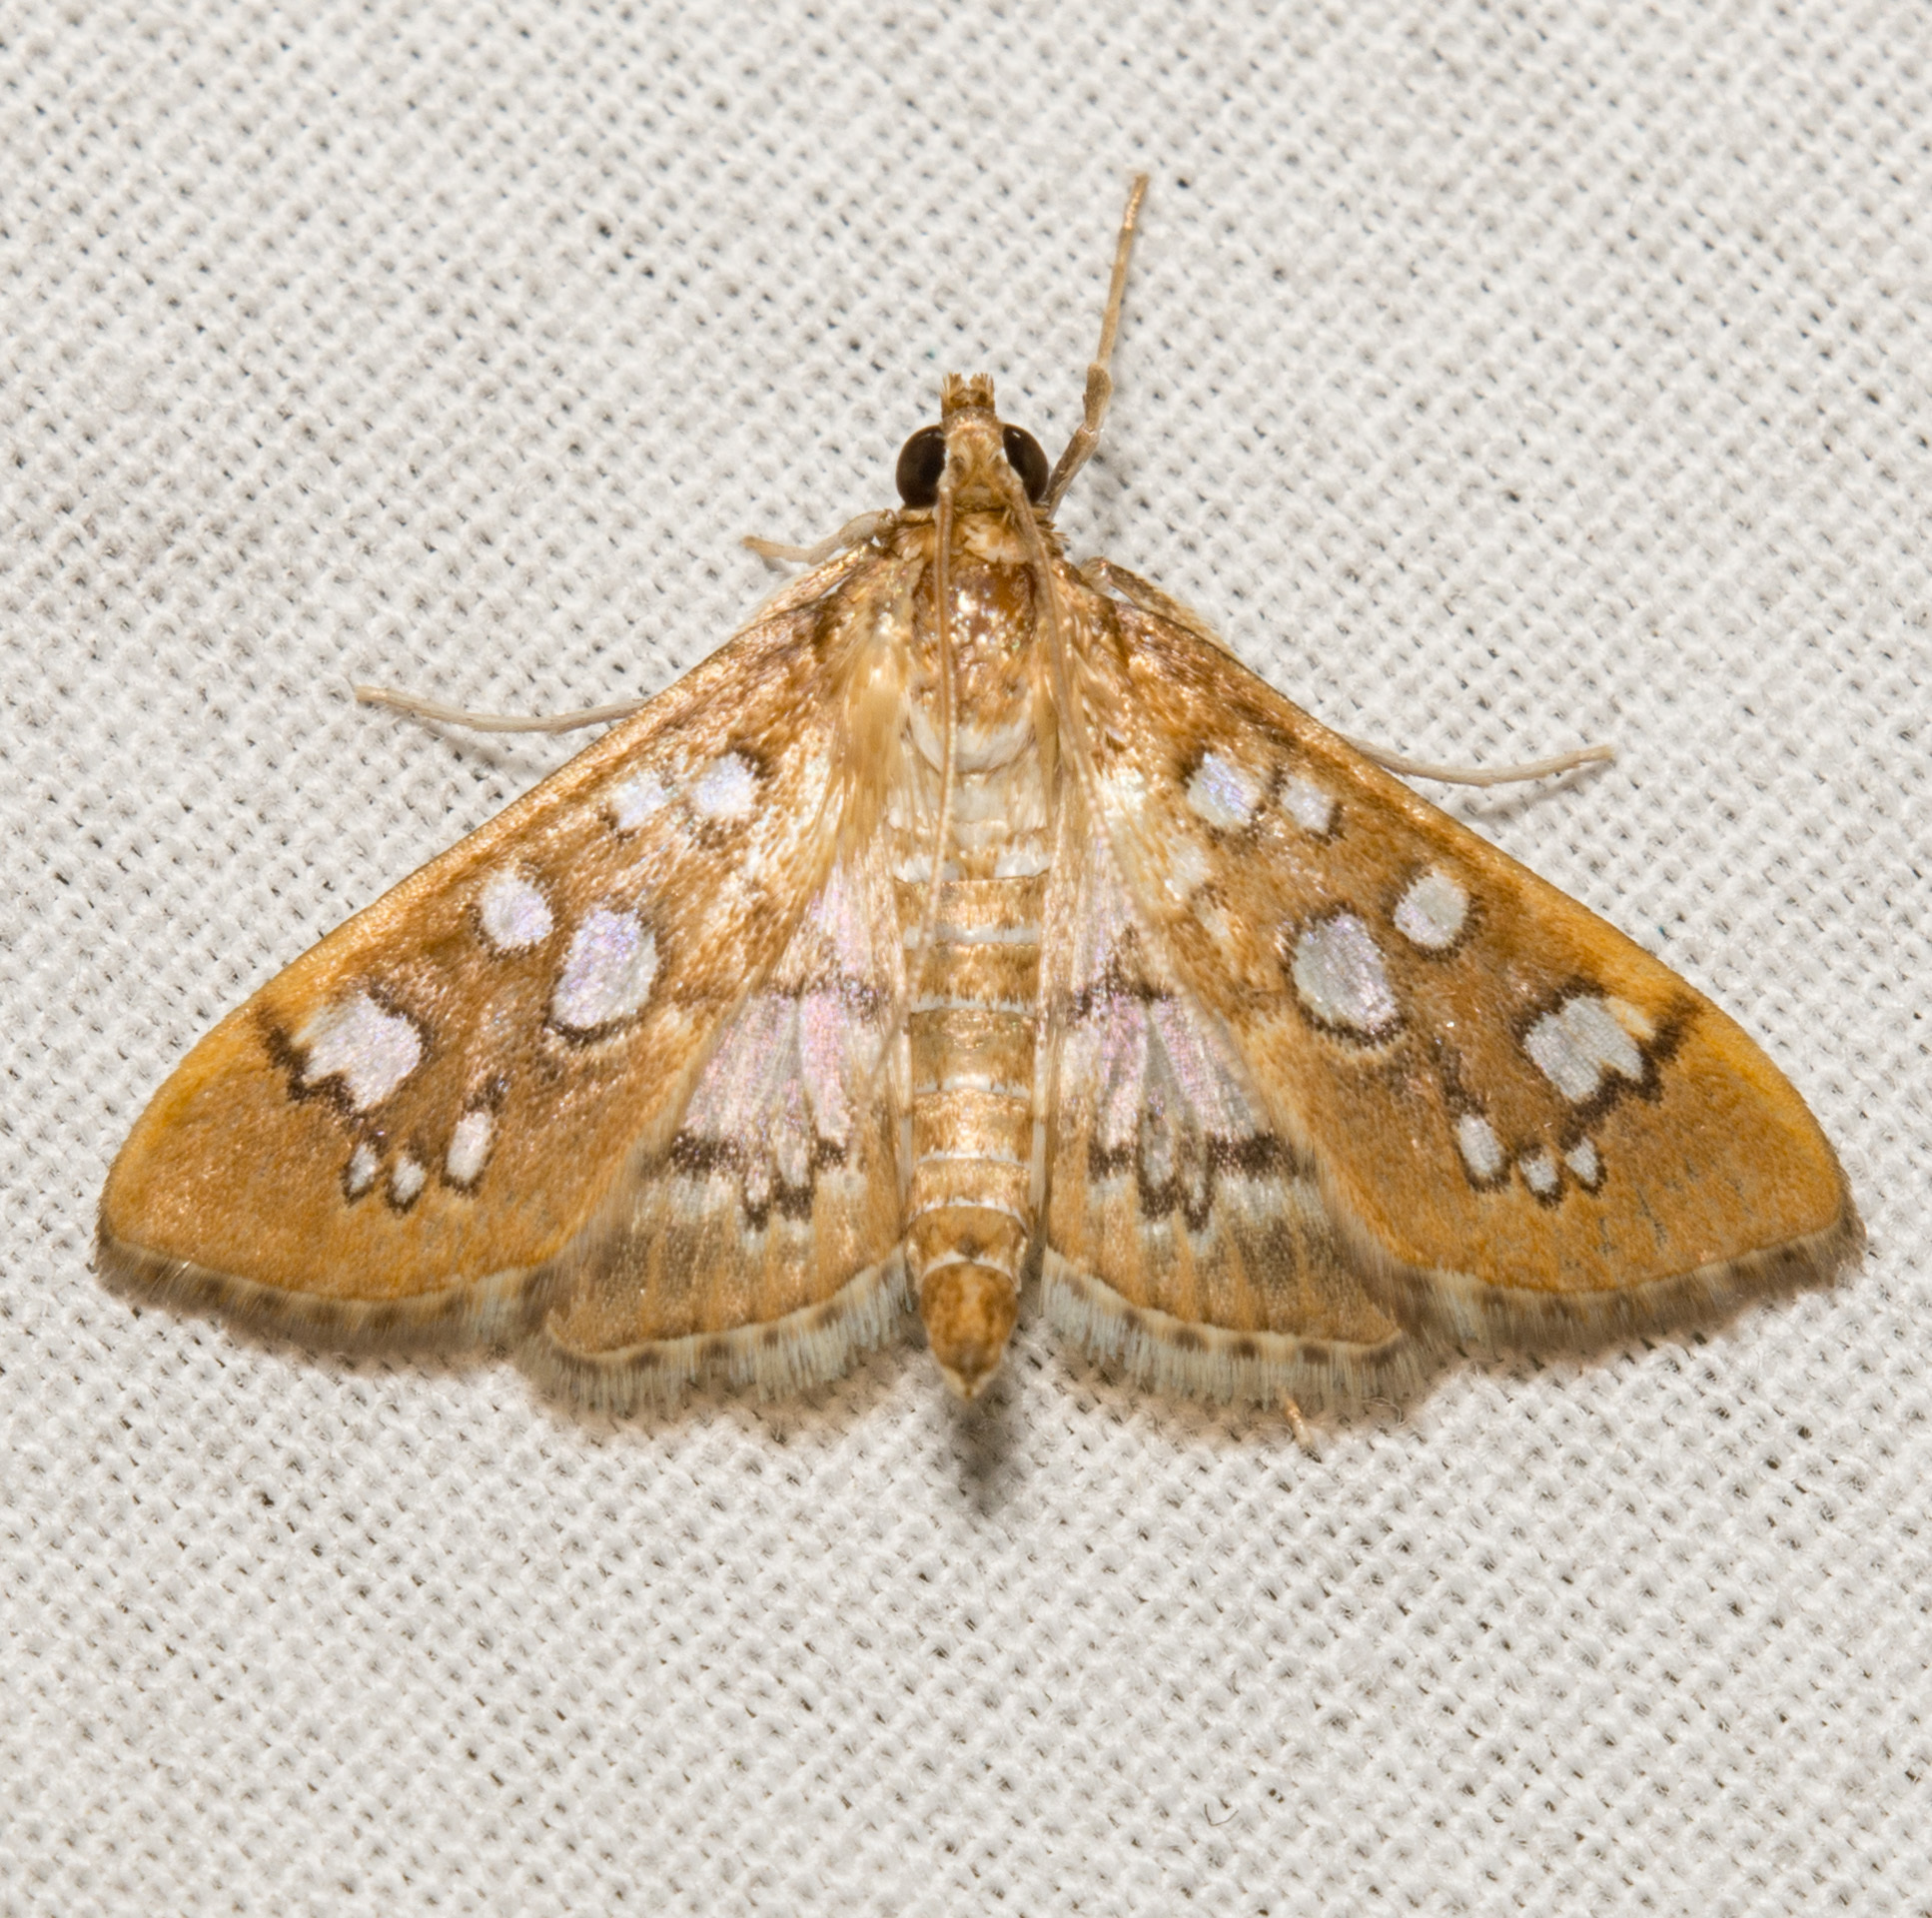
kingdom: Animalia
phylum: Arthropoda
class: Insecta
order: Lepidoptera
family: Crambidae
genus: Samea
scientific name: Samea baccatalis
